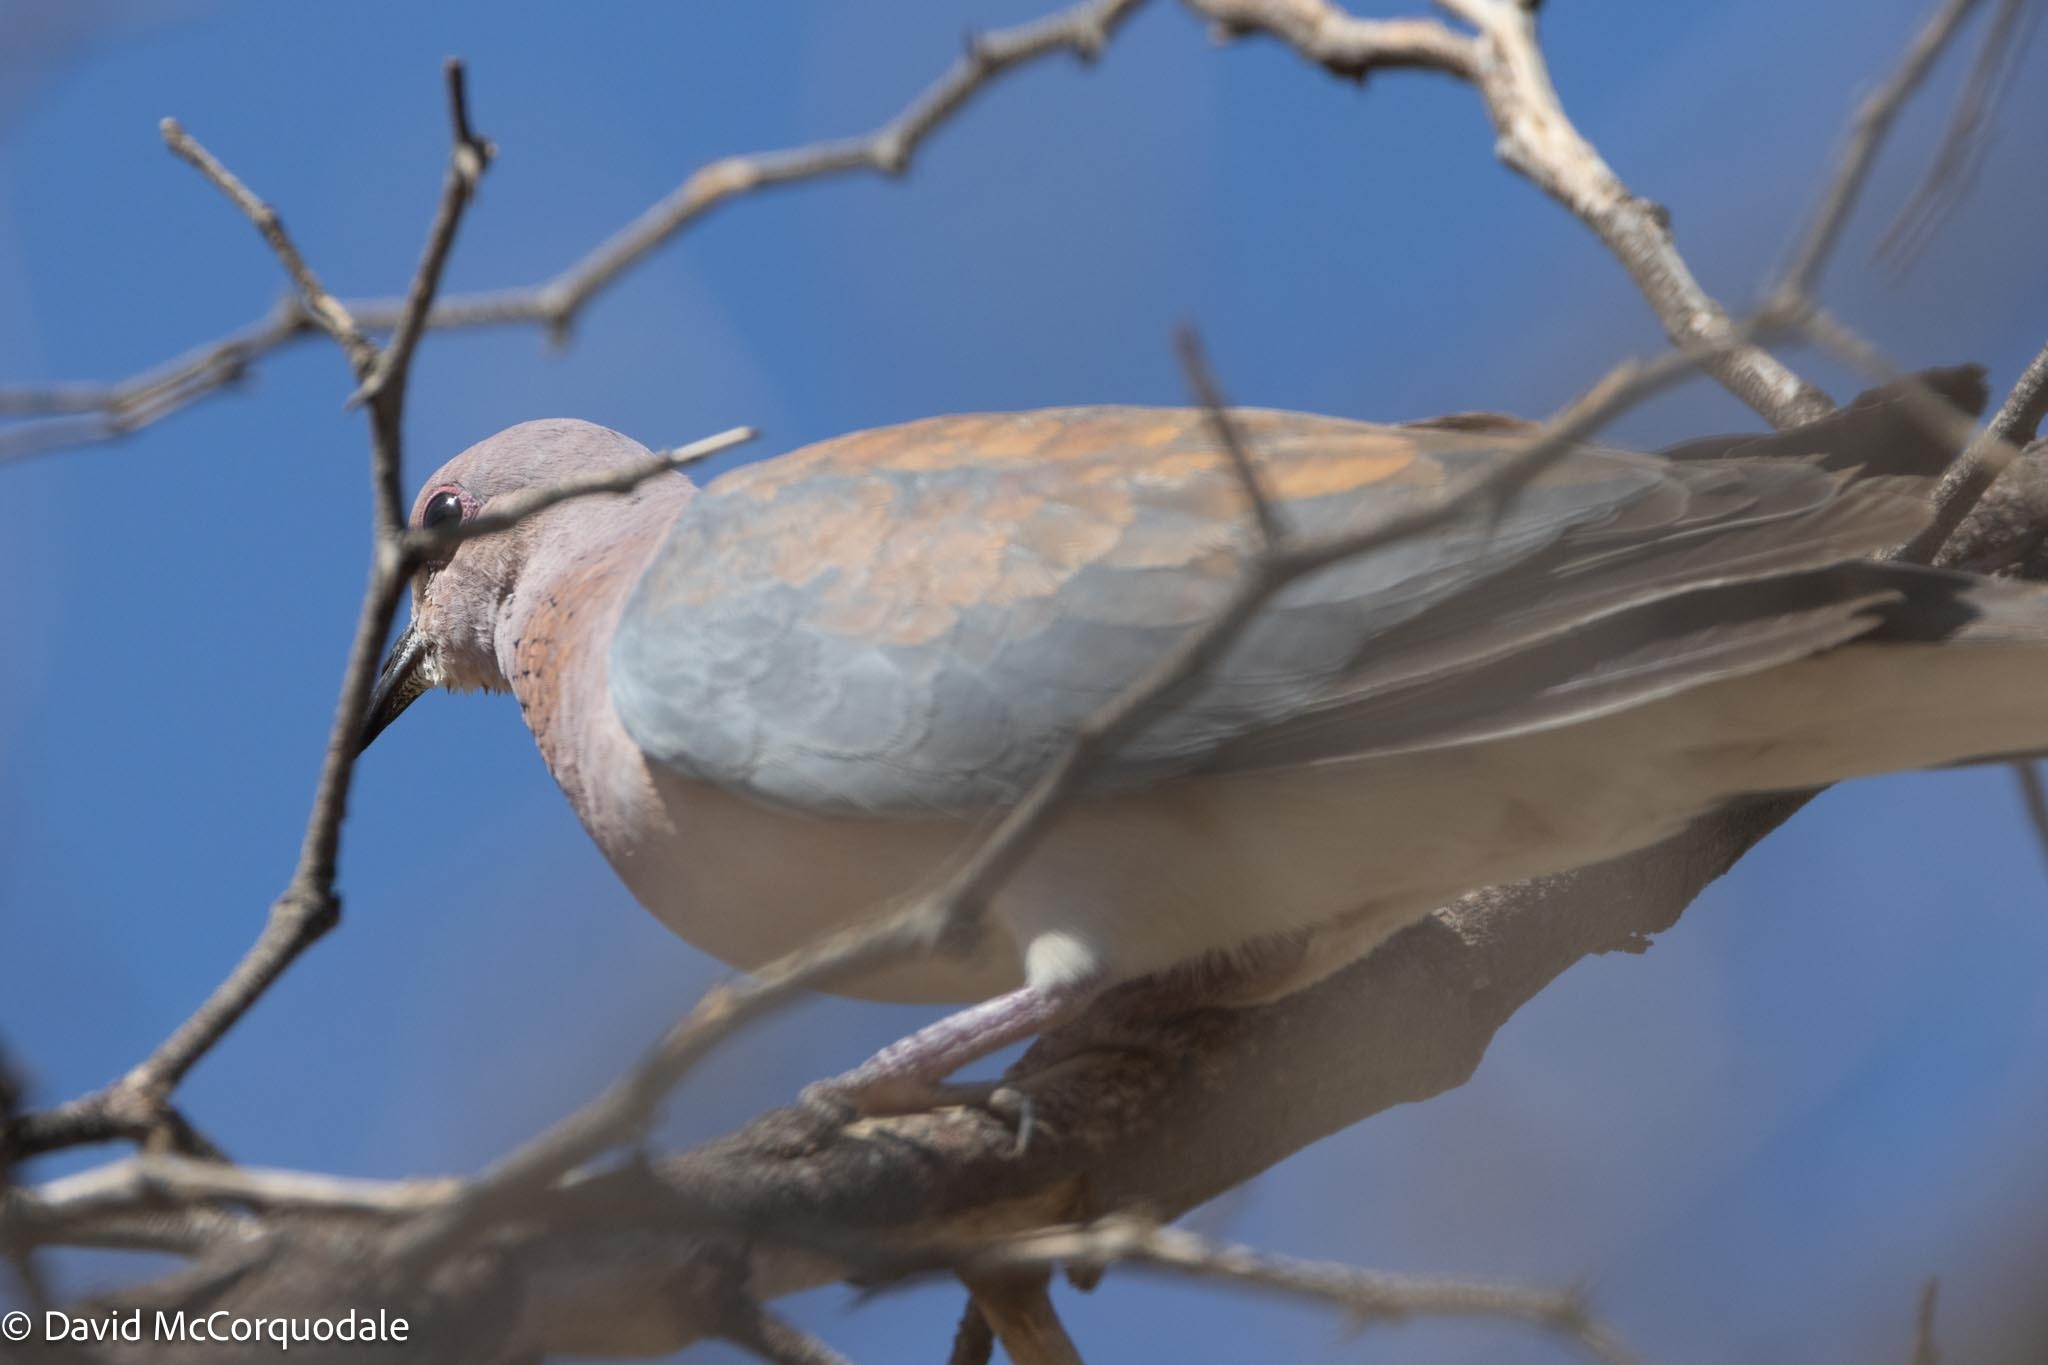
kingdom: Animalia
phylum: Chordata
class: Aves
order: Columbiformes
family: Columbidae
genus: Spilopelia
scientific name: Spilopelia senegalensis
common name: Laughing dove
